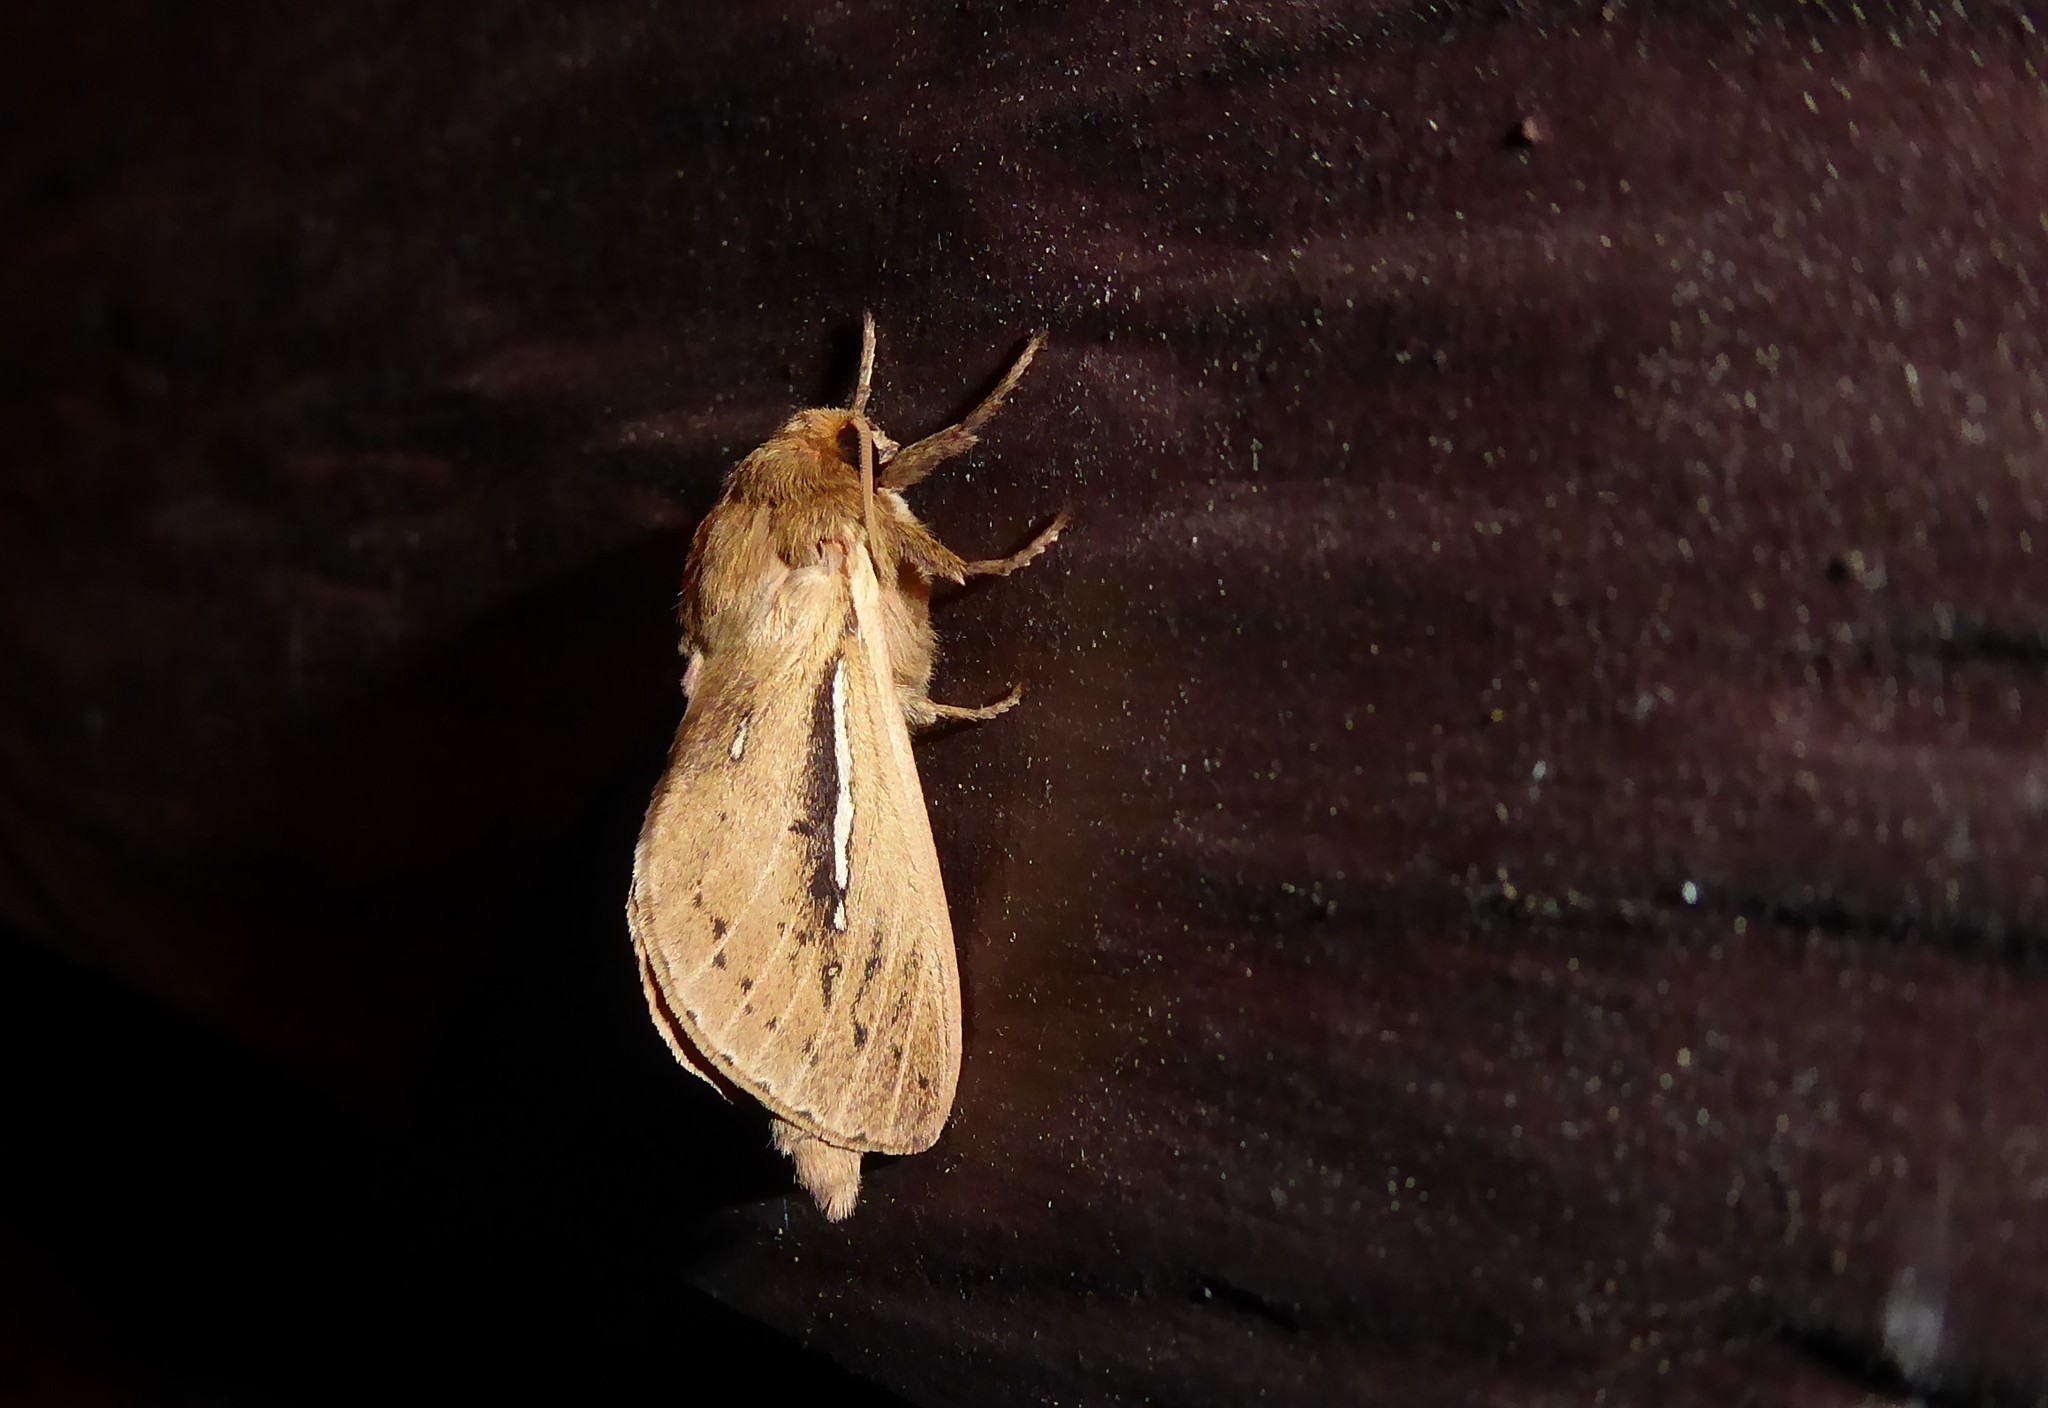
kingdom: Animalia
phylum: Arthropoda
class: Insecta
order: Lepidoptera
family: Hepialidae
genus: Wiseana
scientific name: Wiseana umbraculatus
